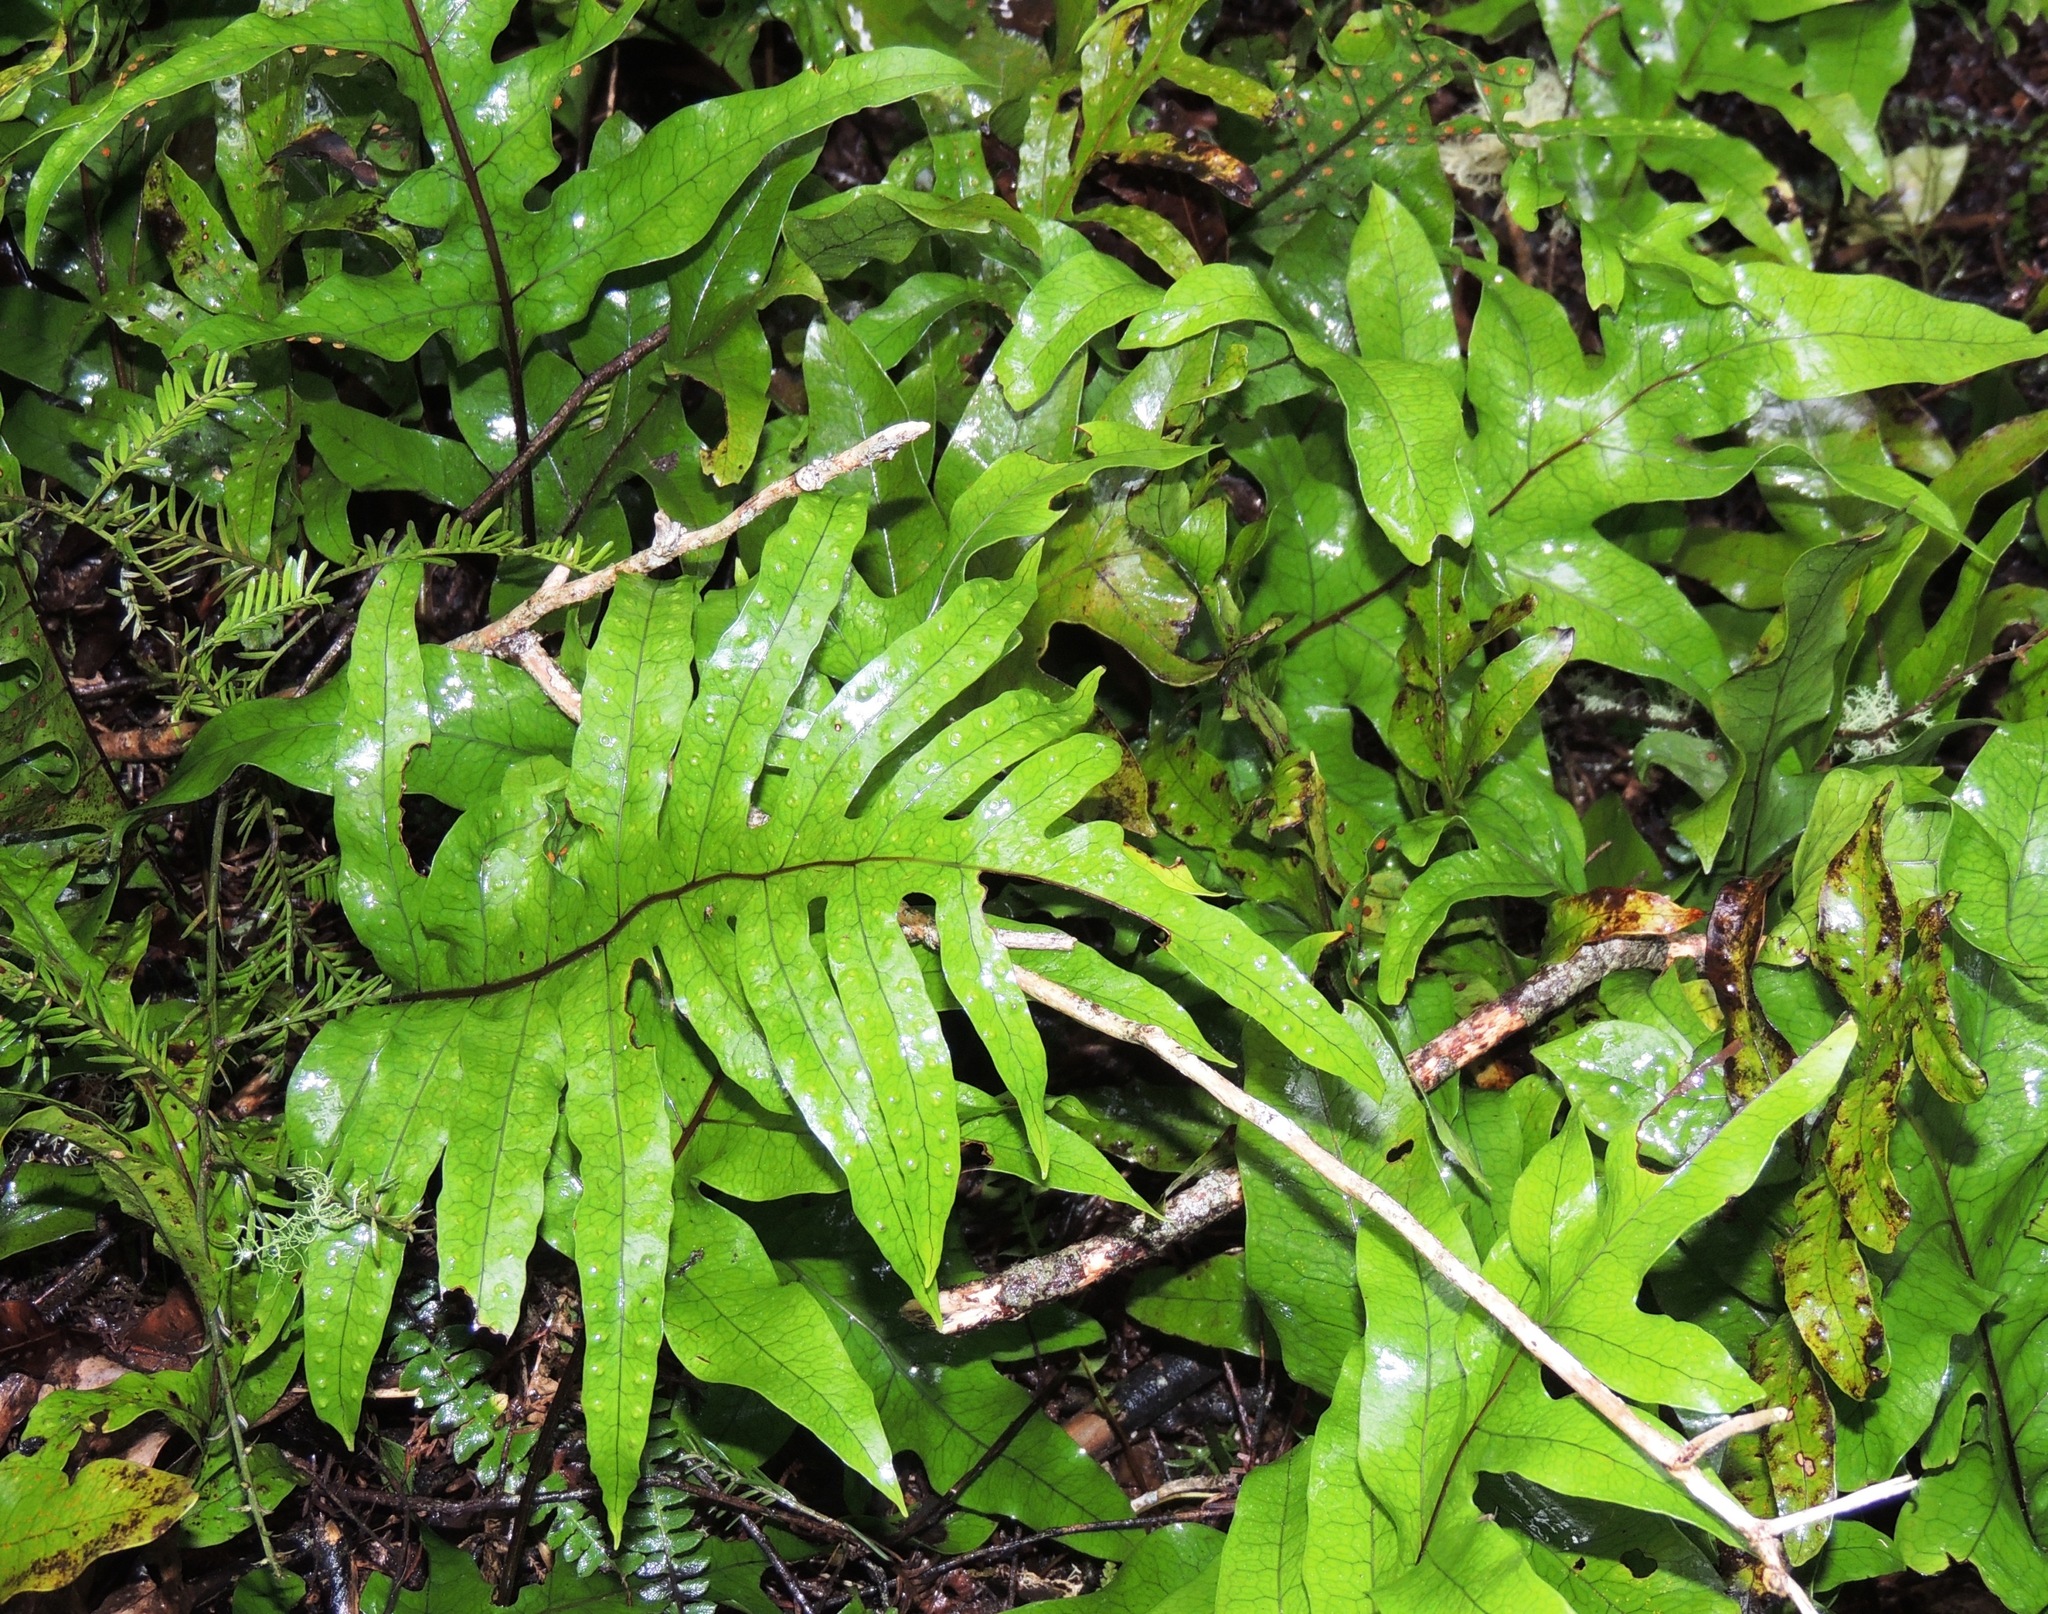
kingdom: Plantae
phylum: Tracheophyta
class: Polypodiopsida
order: Polypodiales
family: Polypodiaceae
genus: Lecanopteris
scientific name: Lecanopteris pustulata
